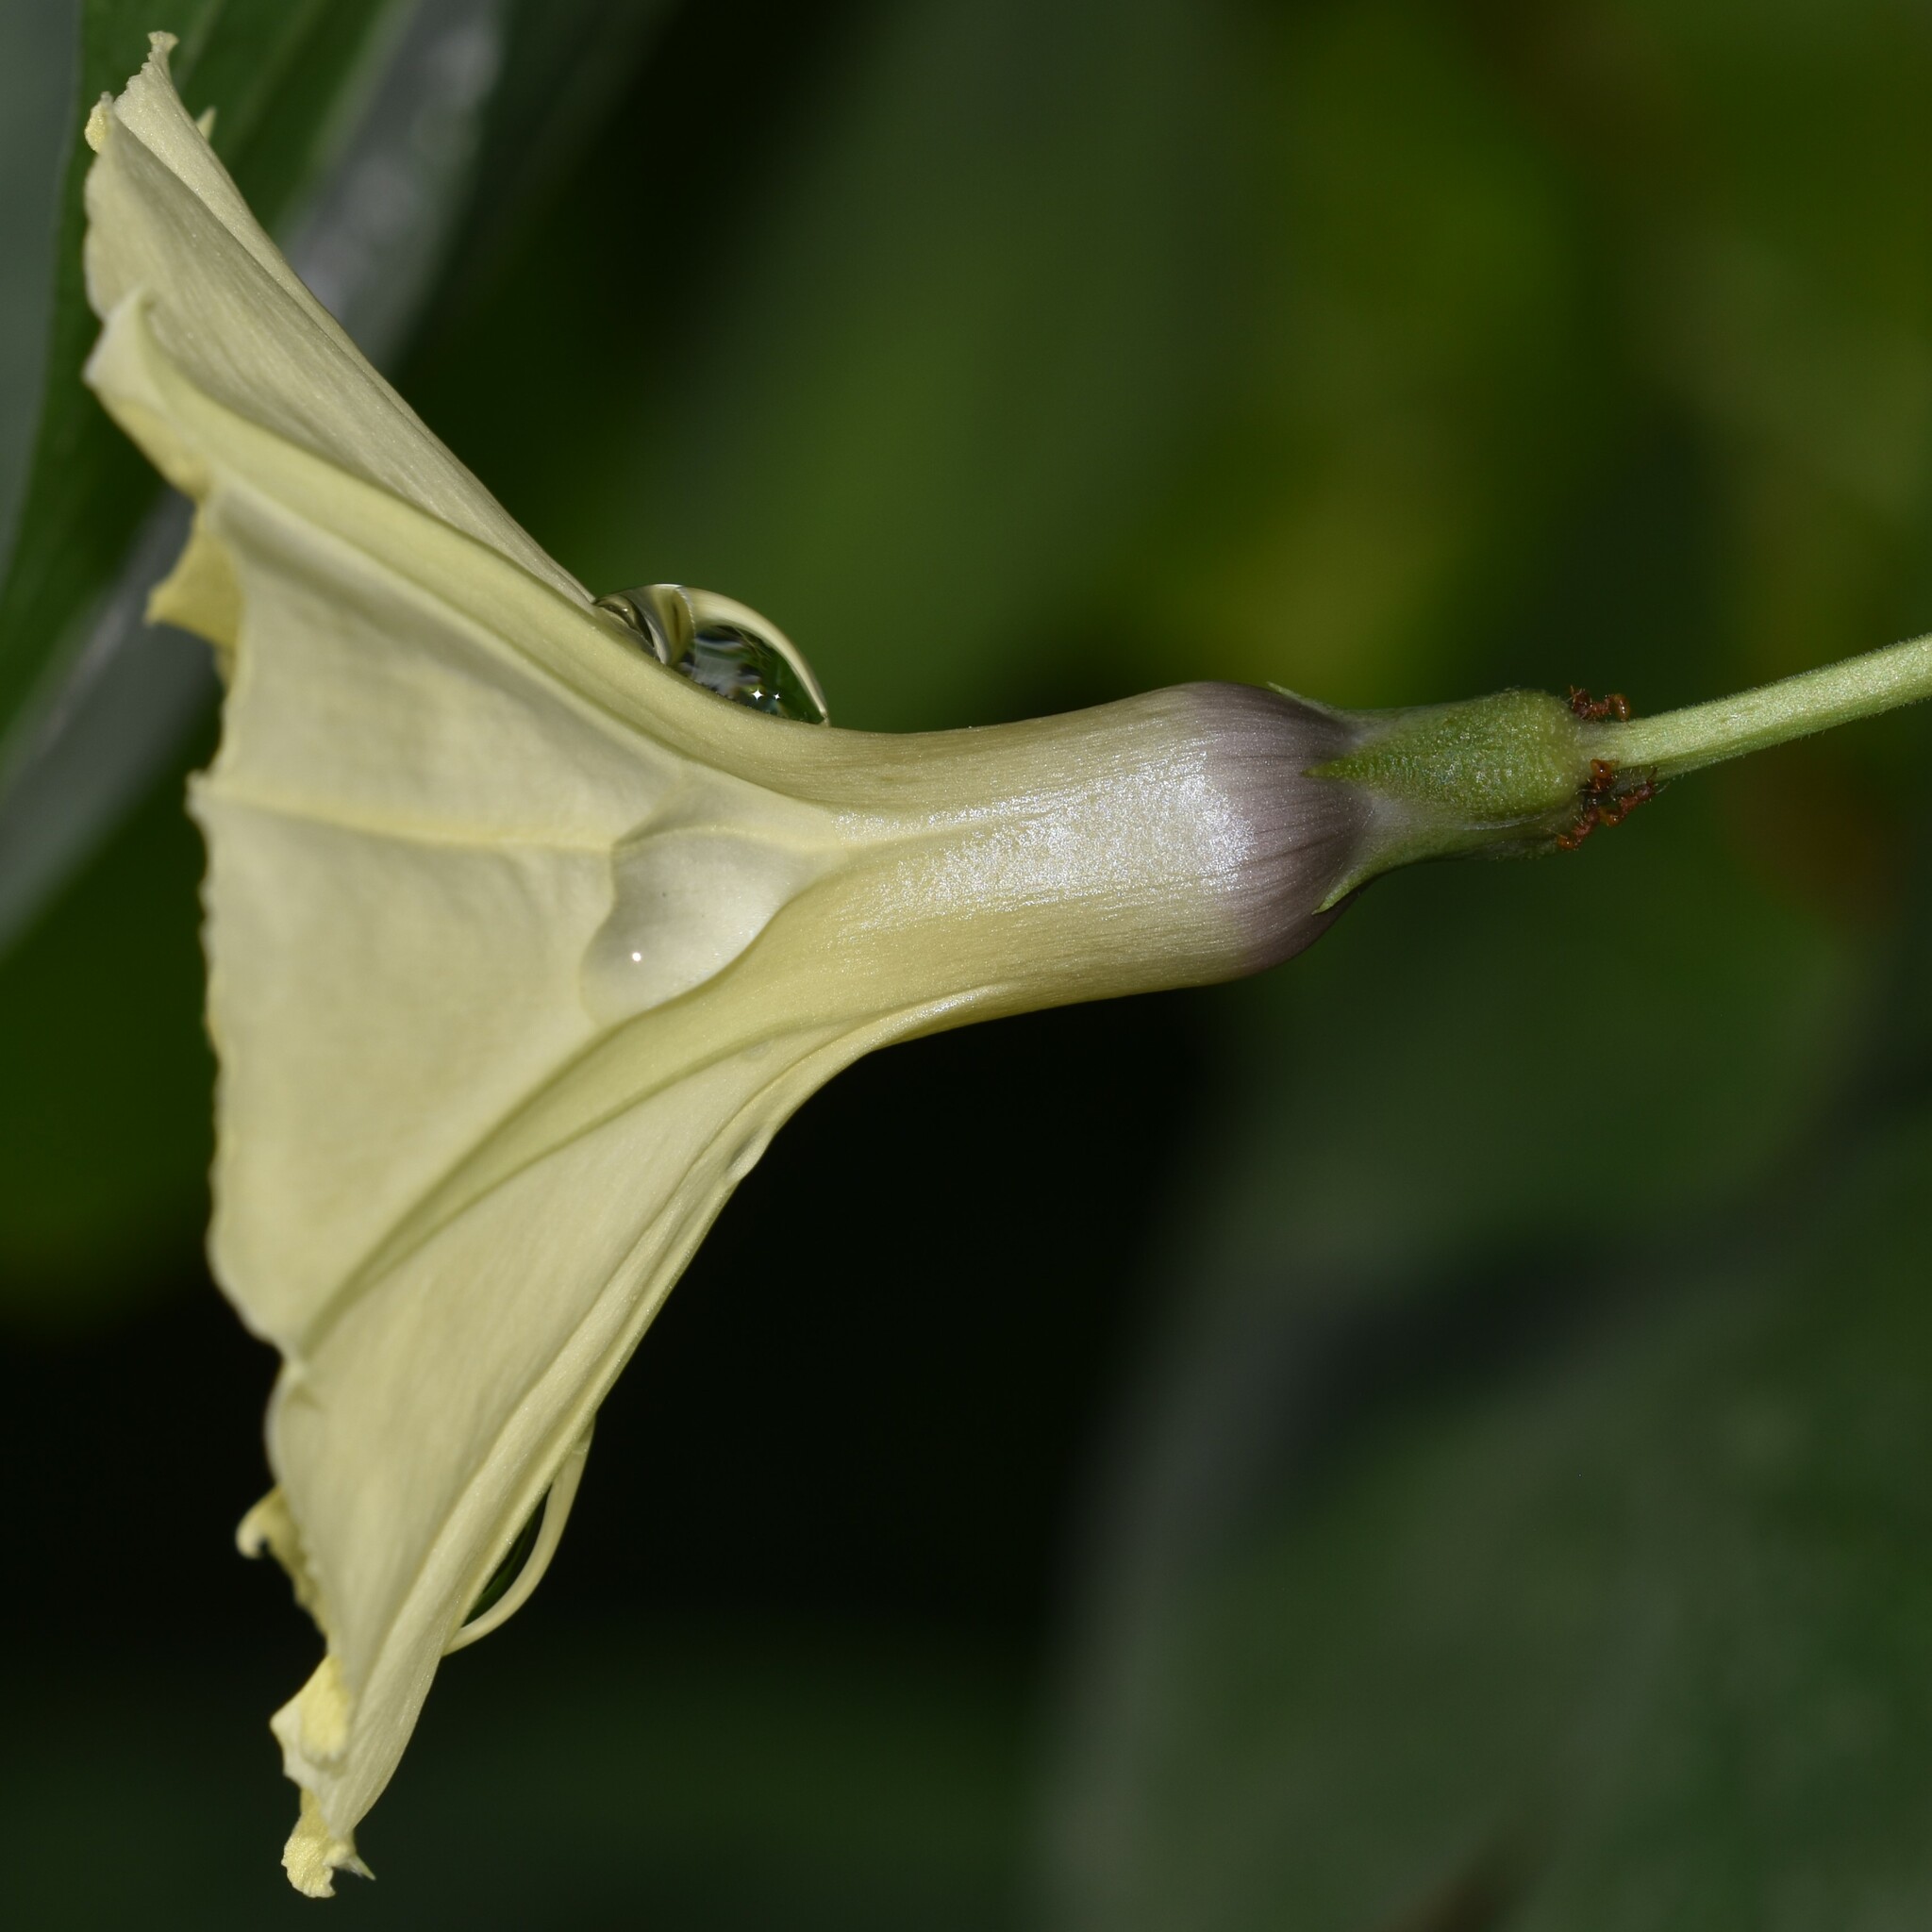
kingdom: Plantae
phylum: Tracheophyta
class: Magnoliopsida
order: Solanales
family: Convolvulaceae
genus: Ipomoea
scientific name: Ipomoea ochracea
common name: Fence morning-glory
